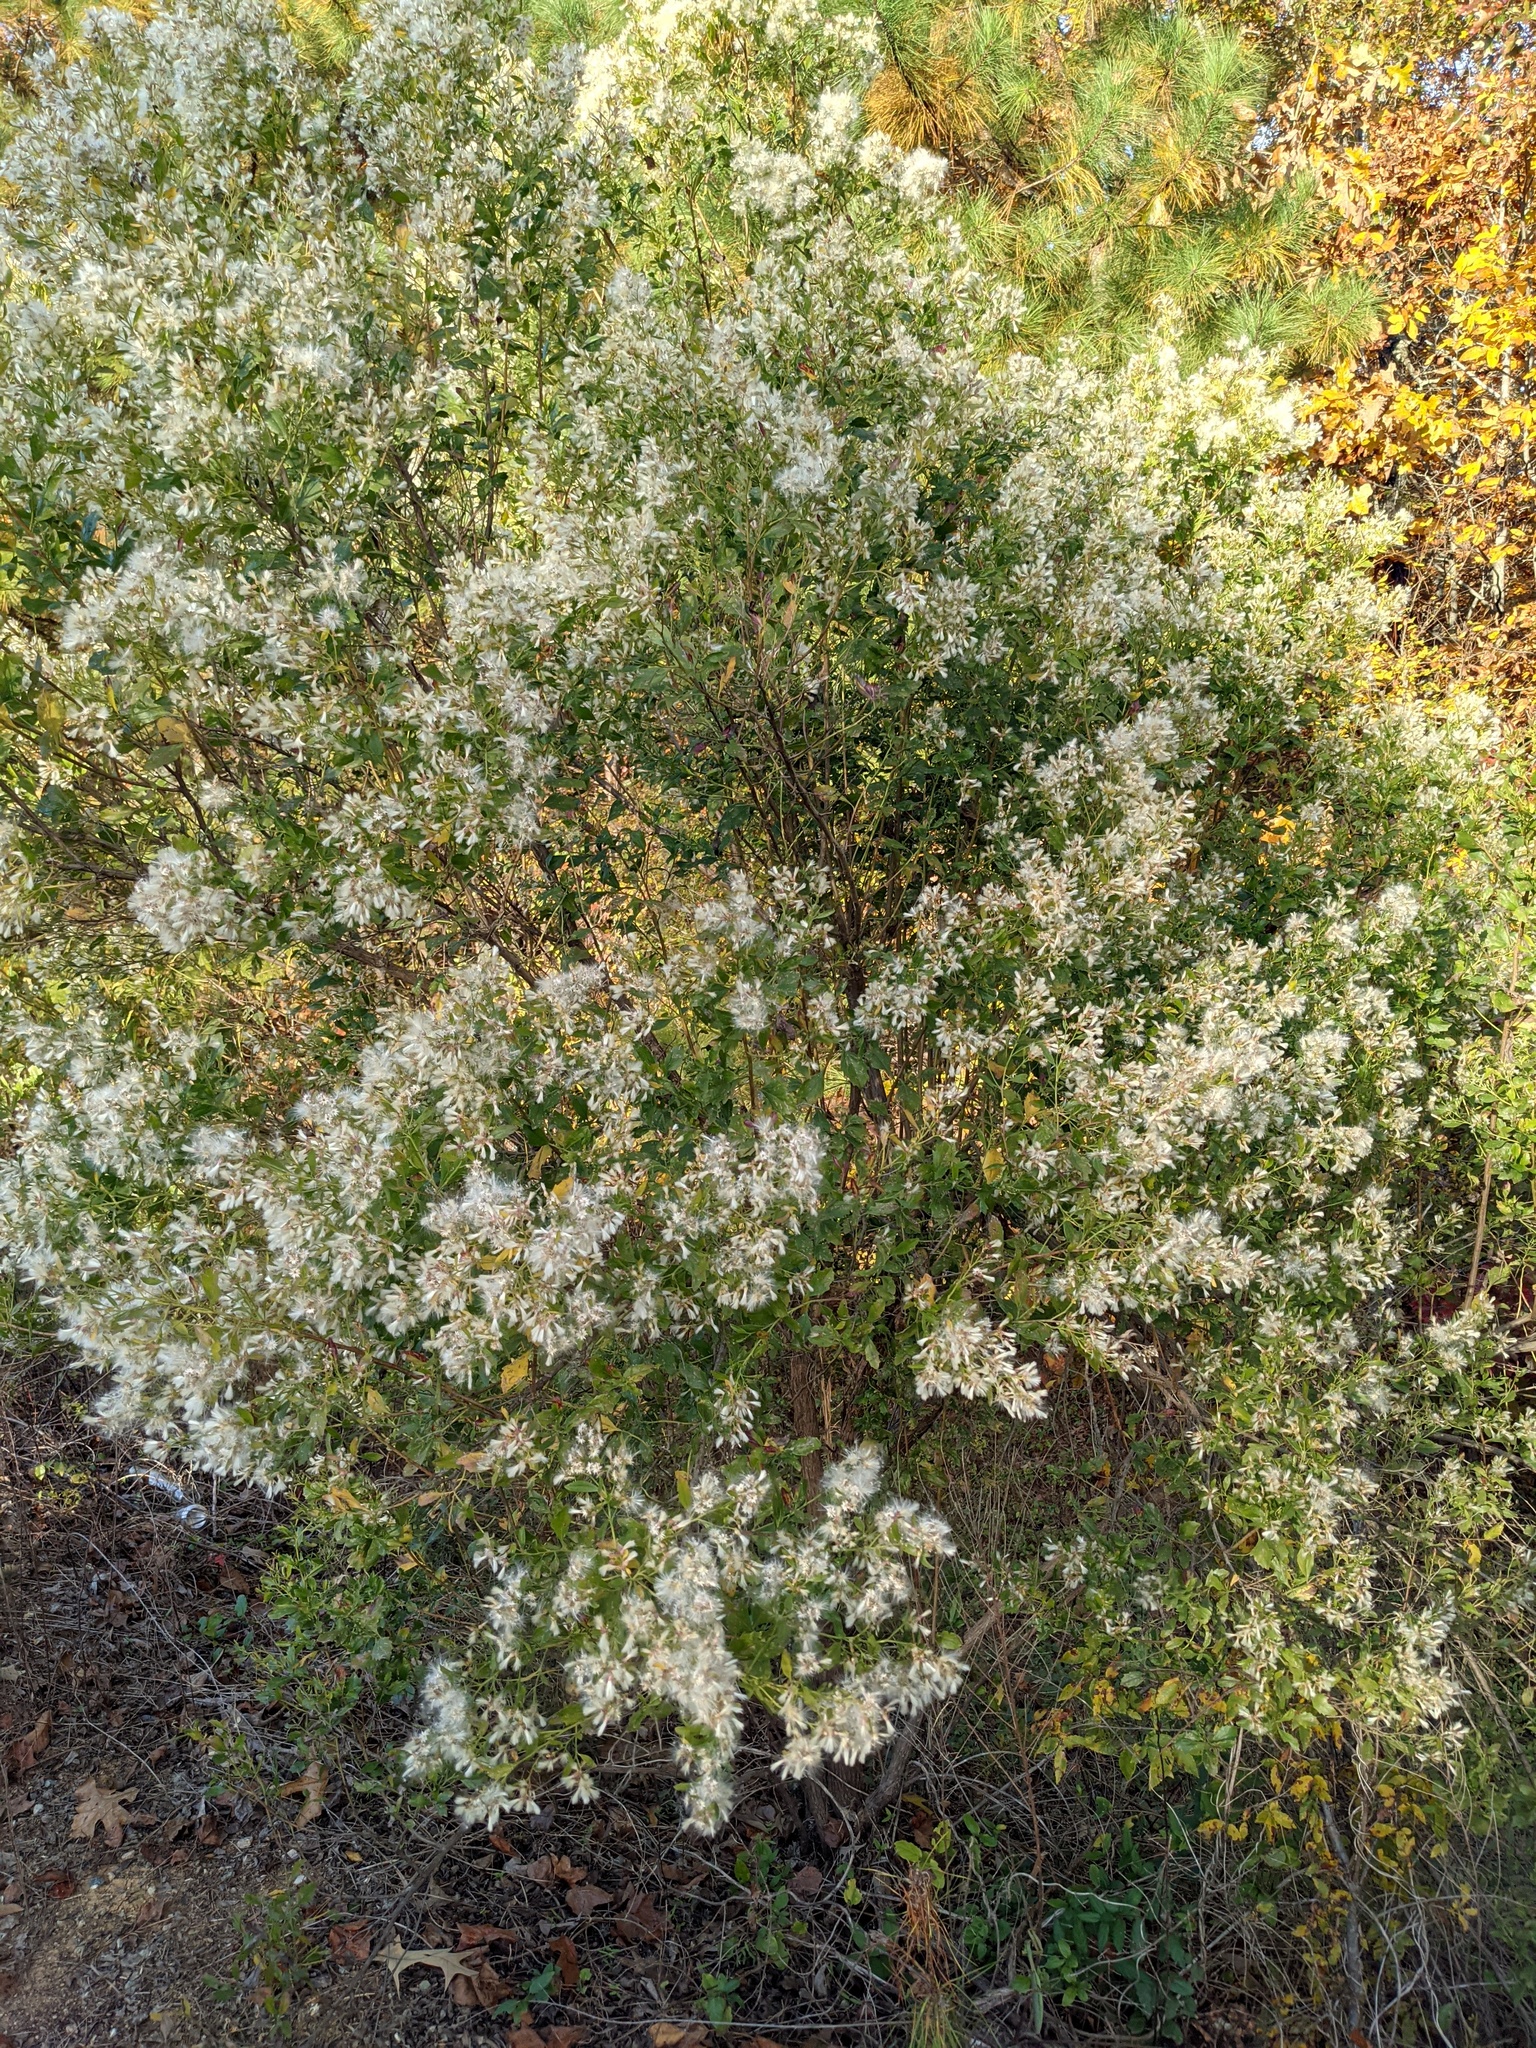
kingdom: Plantae
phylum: Tracheophyta
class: Magnoliopsida
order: Asterales
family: Asteraceae
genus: Baccharis
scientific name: Baccharis halimifolia
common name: Eastern baccharis
